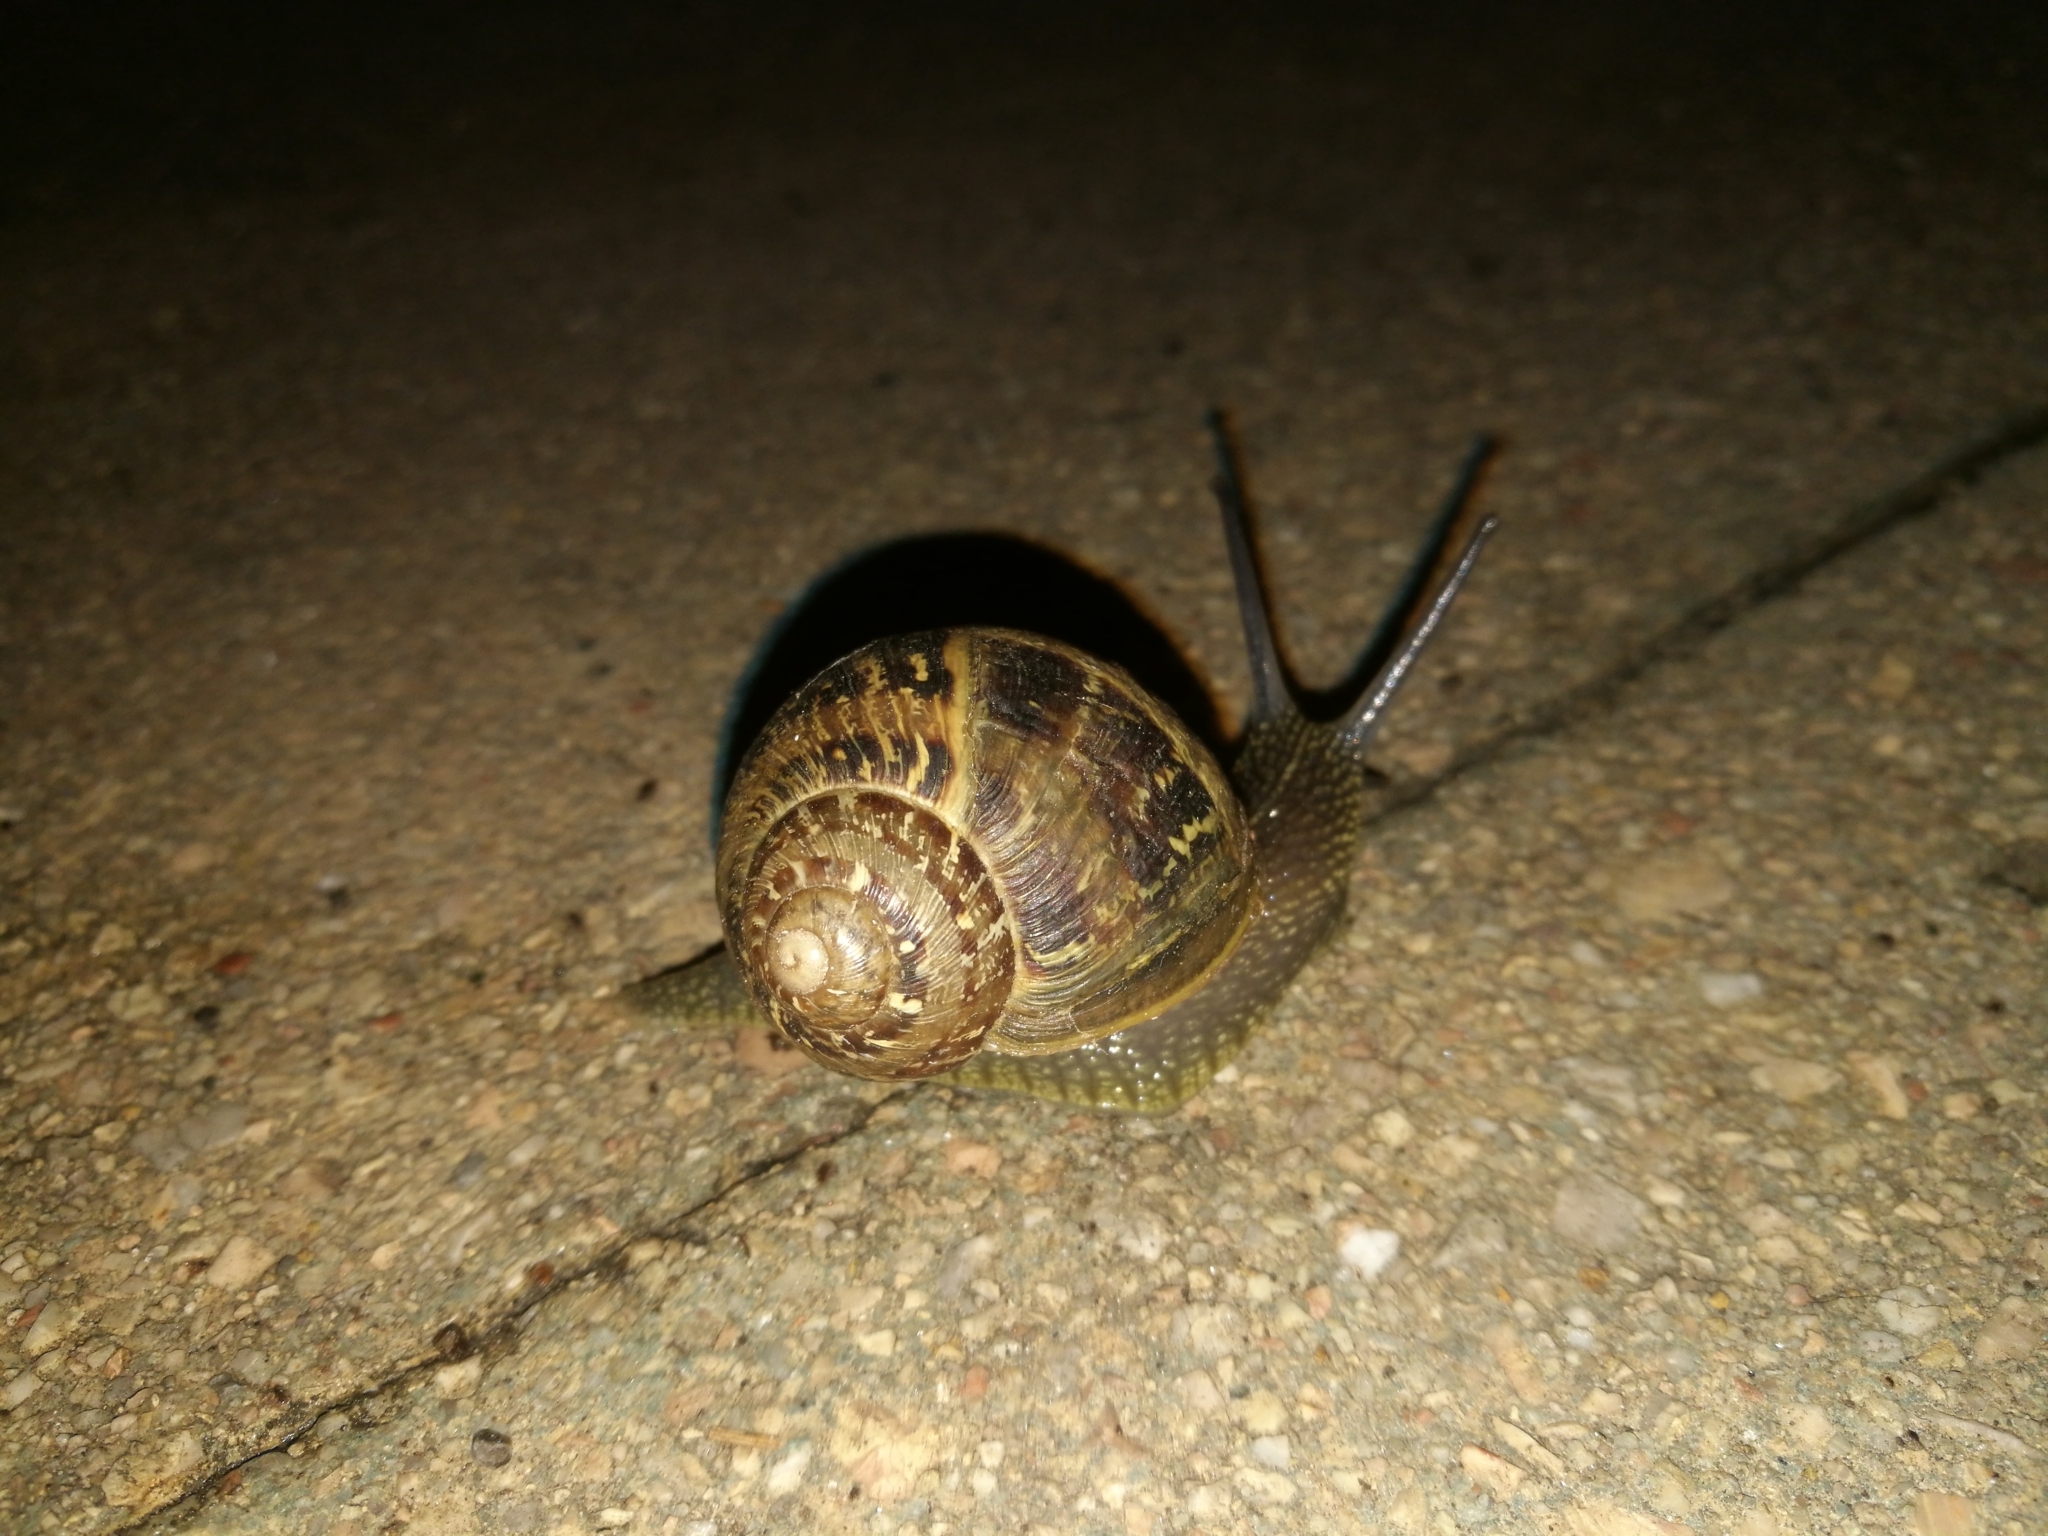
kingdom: Animalia
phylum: Mollusca
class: Gastropoda
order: Stylommatophora
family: Helicidae
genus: Cornu
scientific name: Cornu aspersum
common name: Brown garden snail
